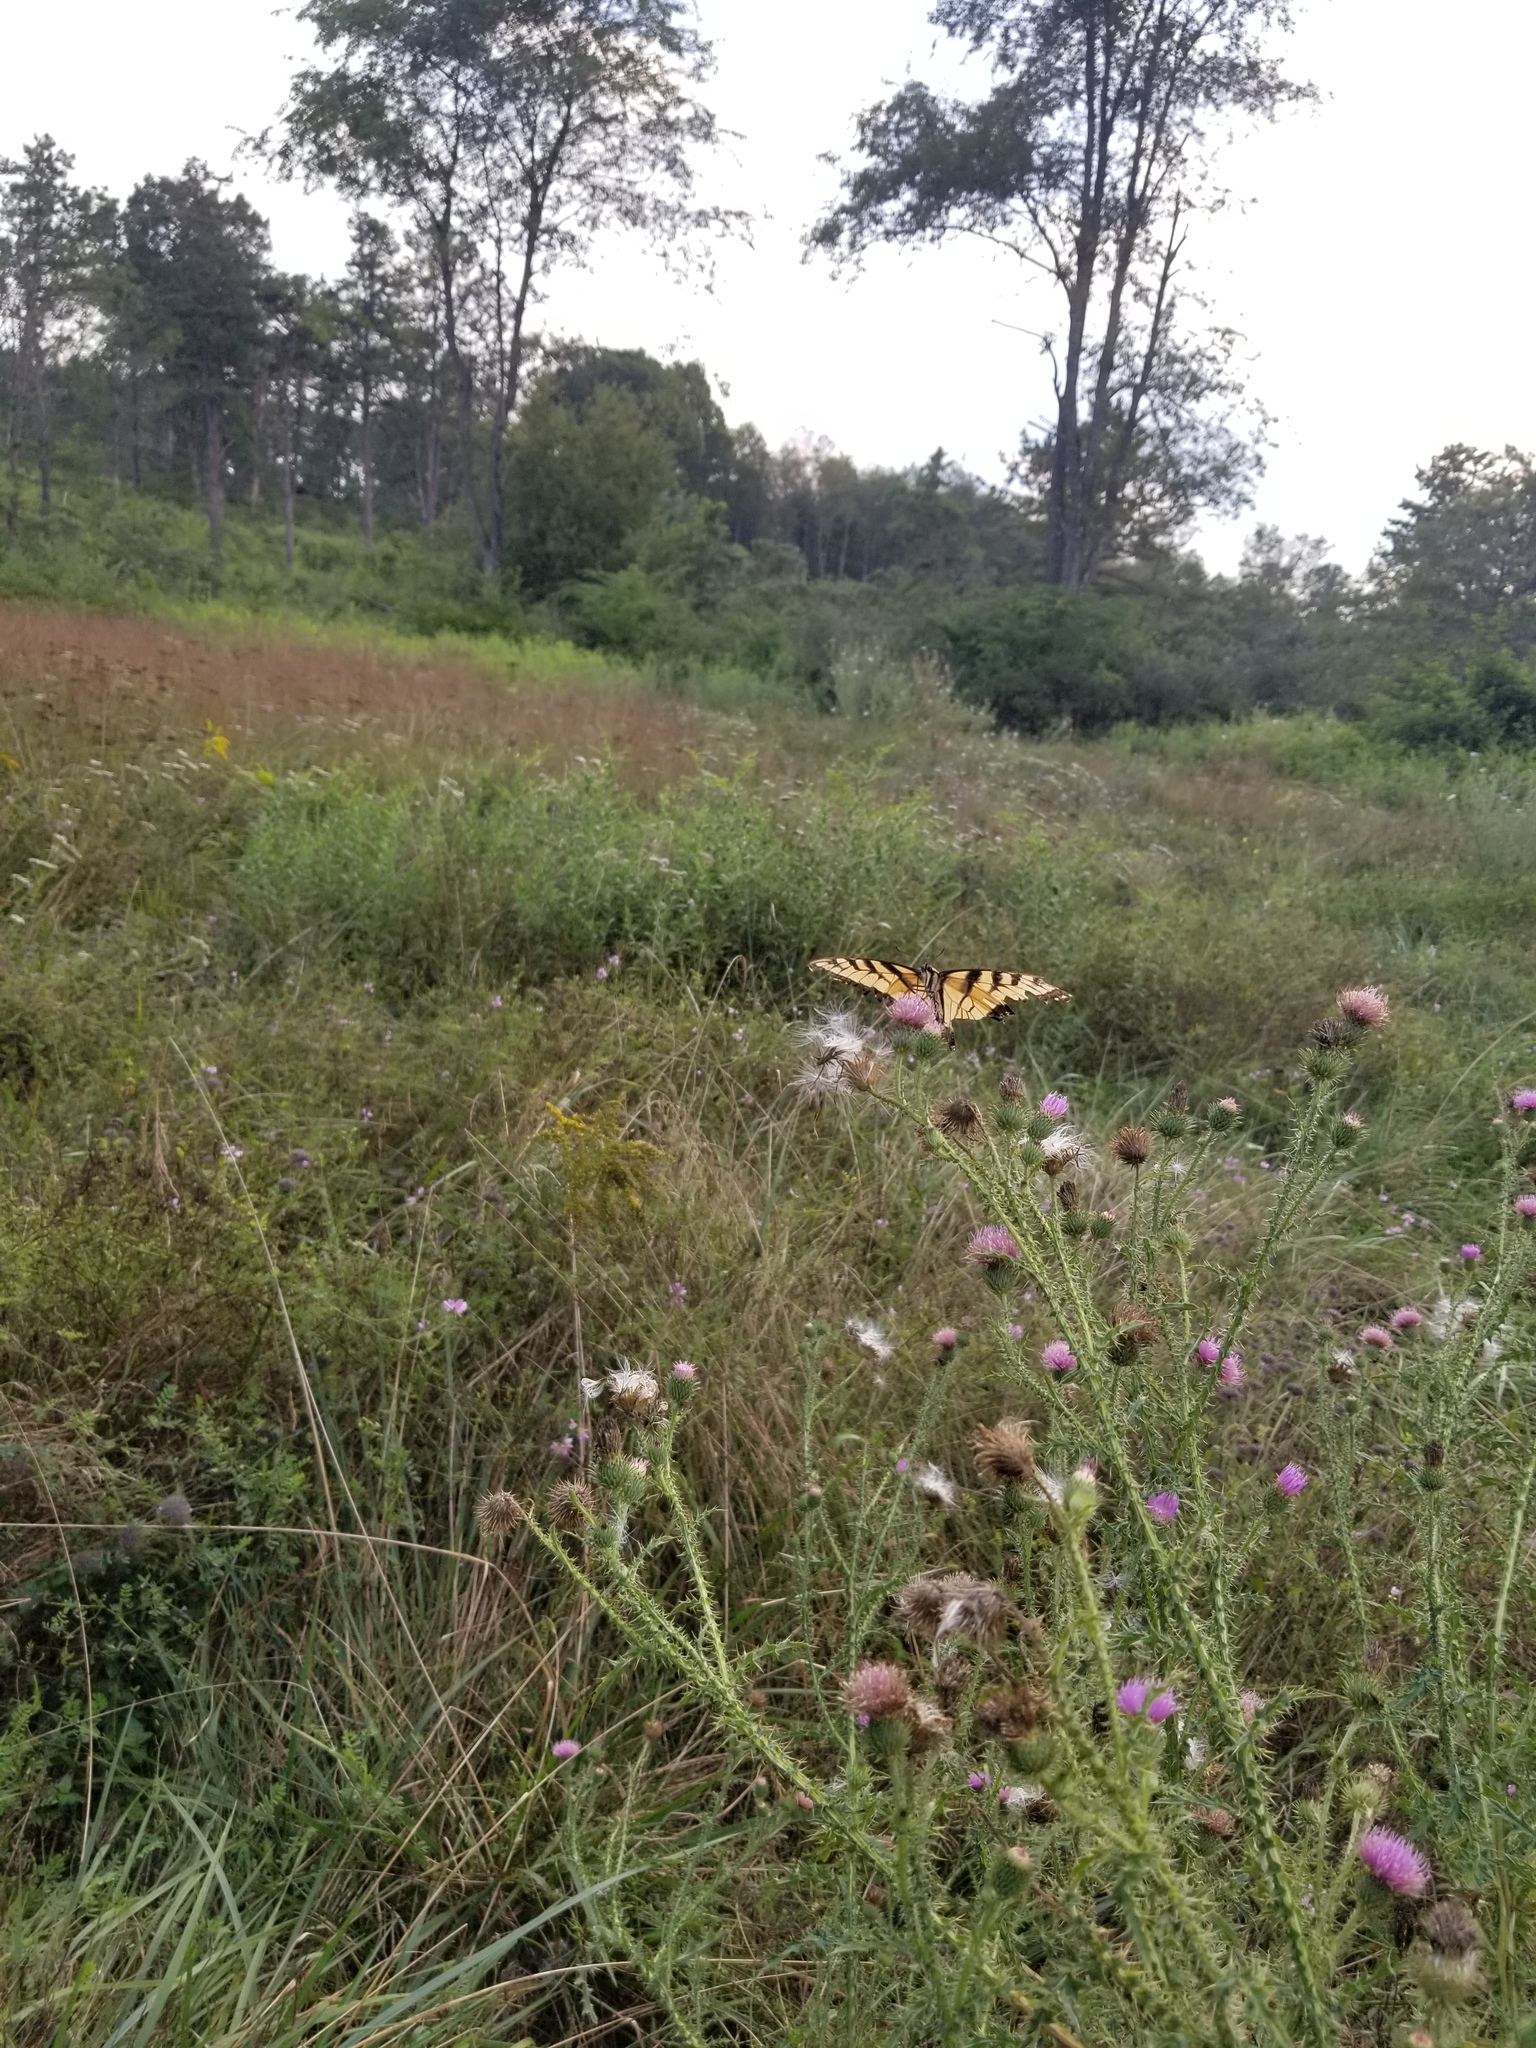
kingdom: Animalia
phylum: Arthropoda
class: Insecta
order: Lepidoptera
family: Papilionidae
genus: Papilio
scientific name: Papilio glaucus
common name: Tiger swallowtail
